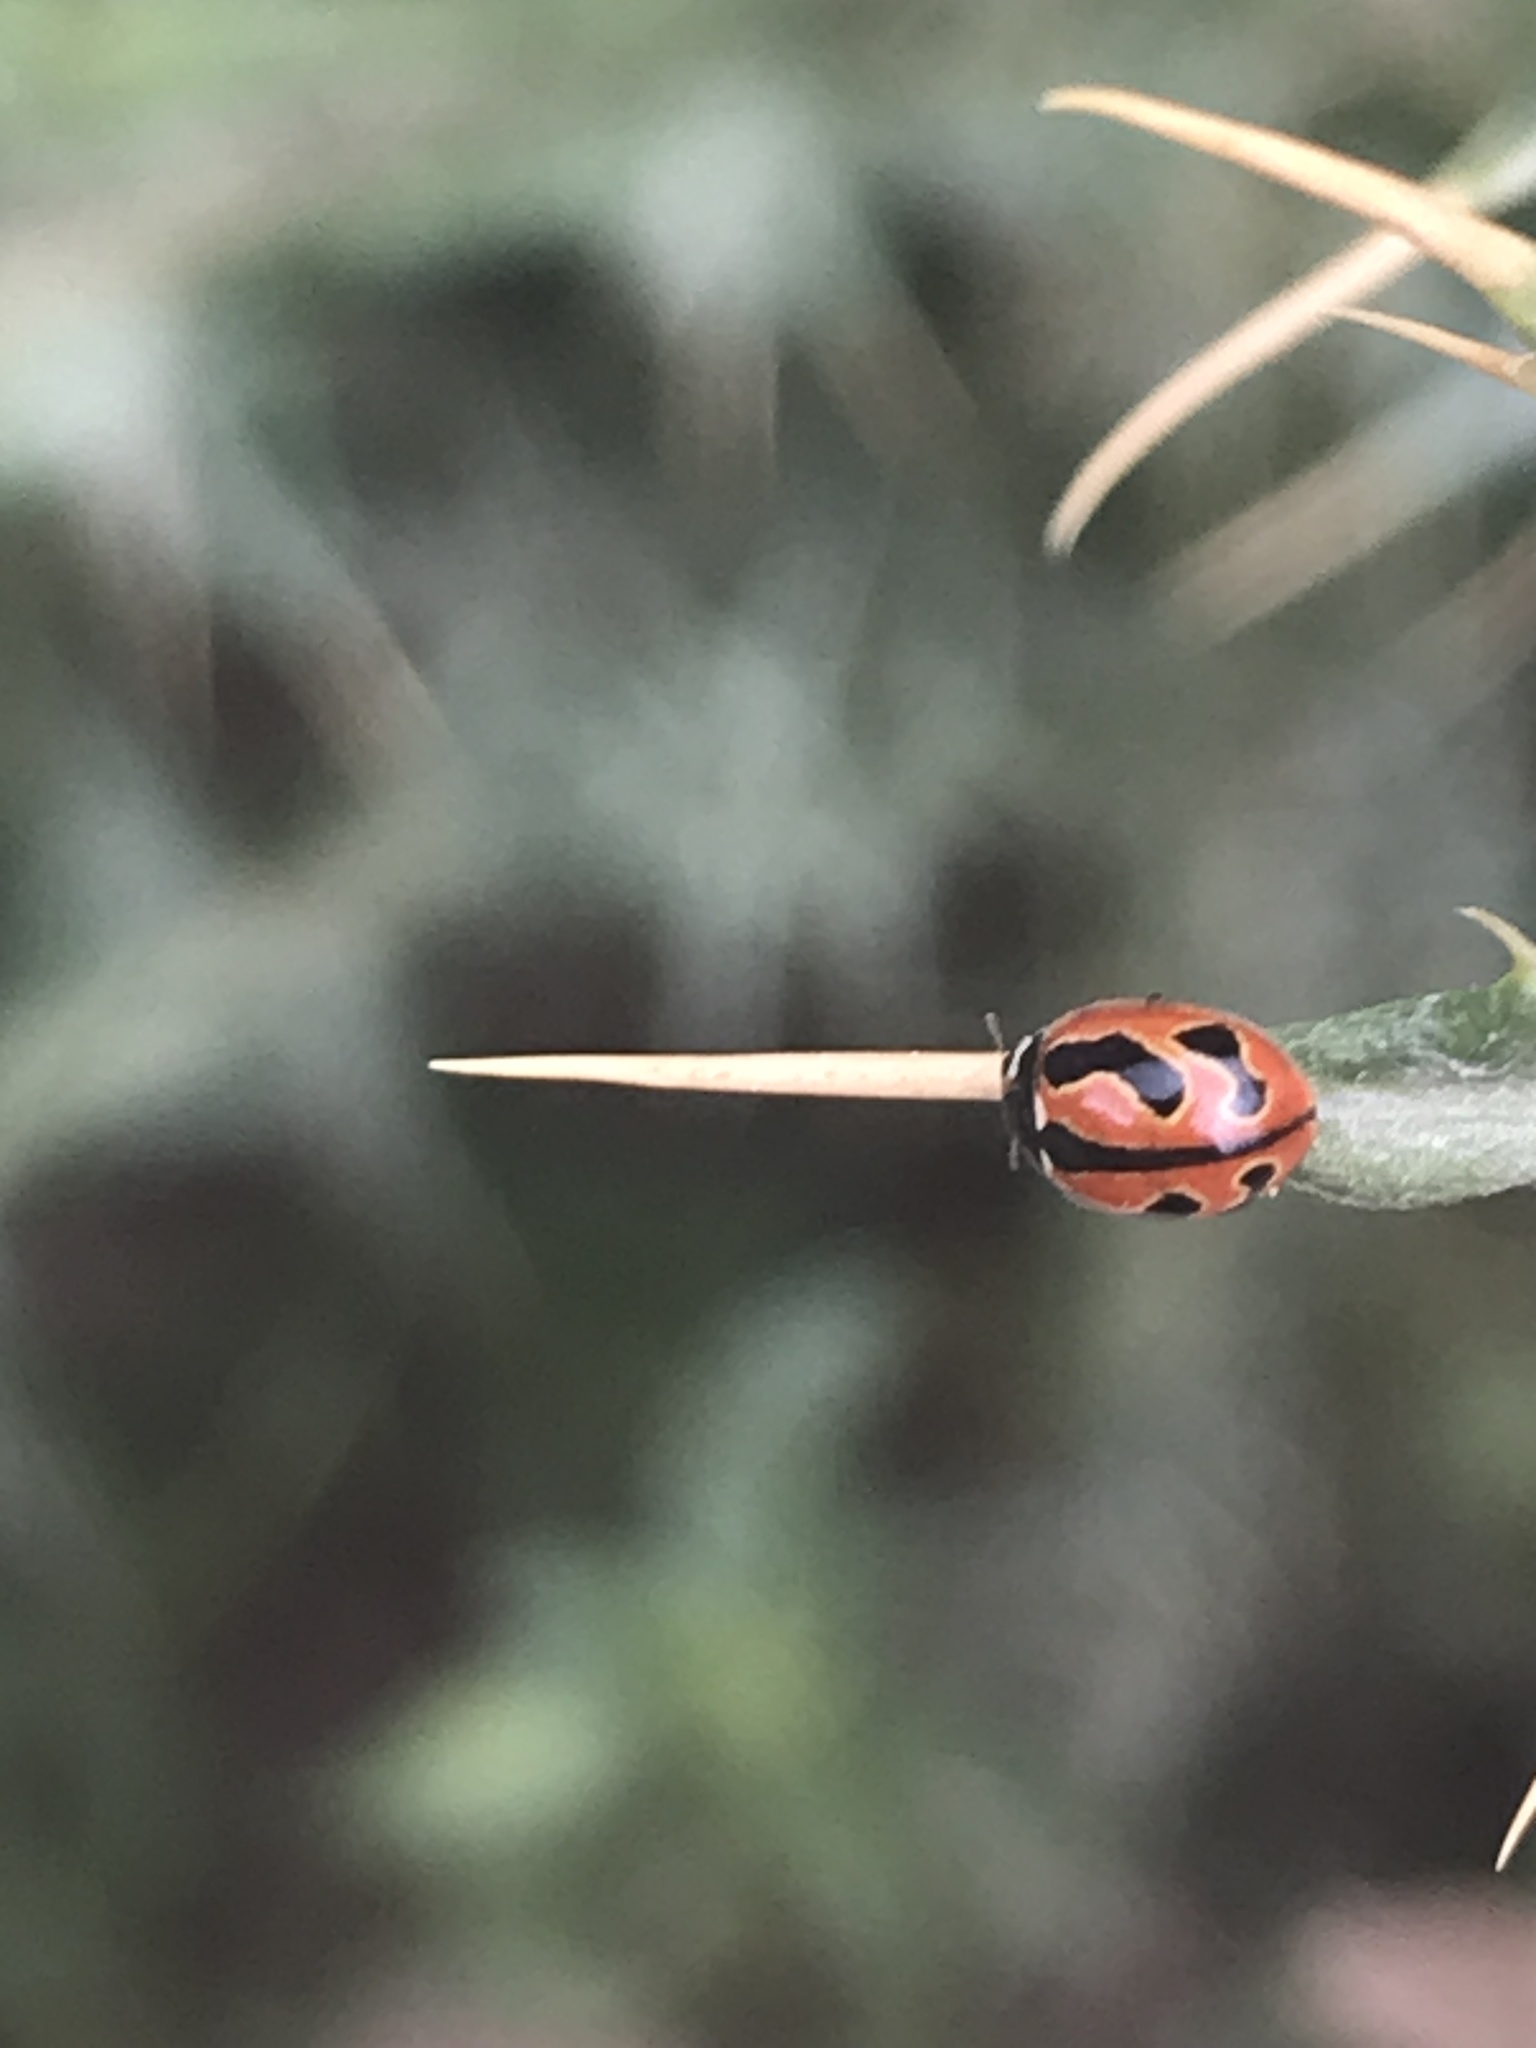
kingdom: Animalia
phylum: Arthropoda
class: Insecta
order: Coleoptera
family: Coccinellidae
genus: Coccinella
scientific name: Coccinella miranda
